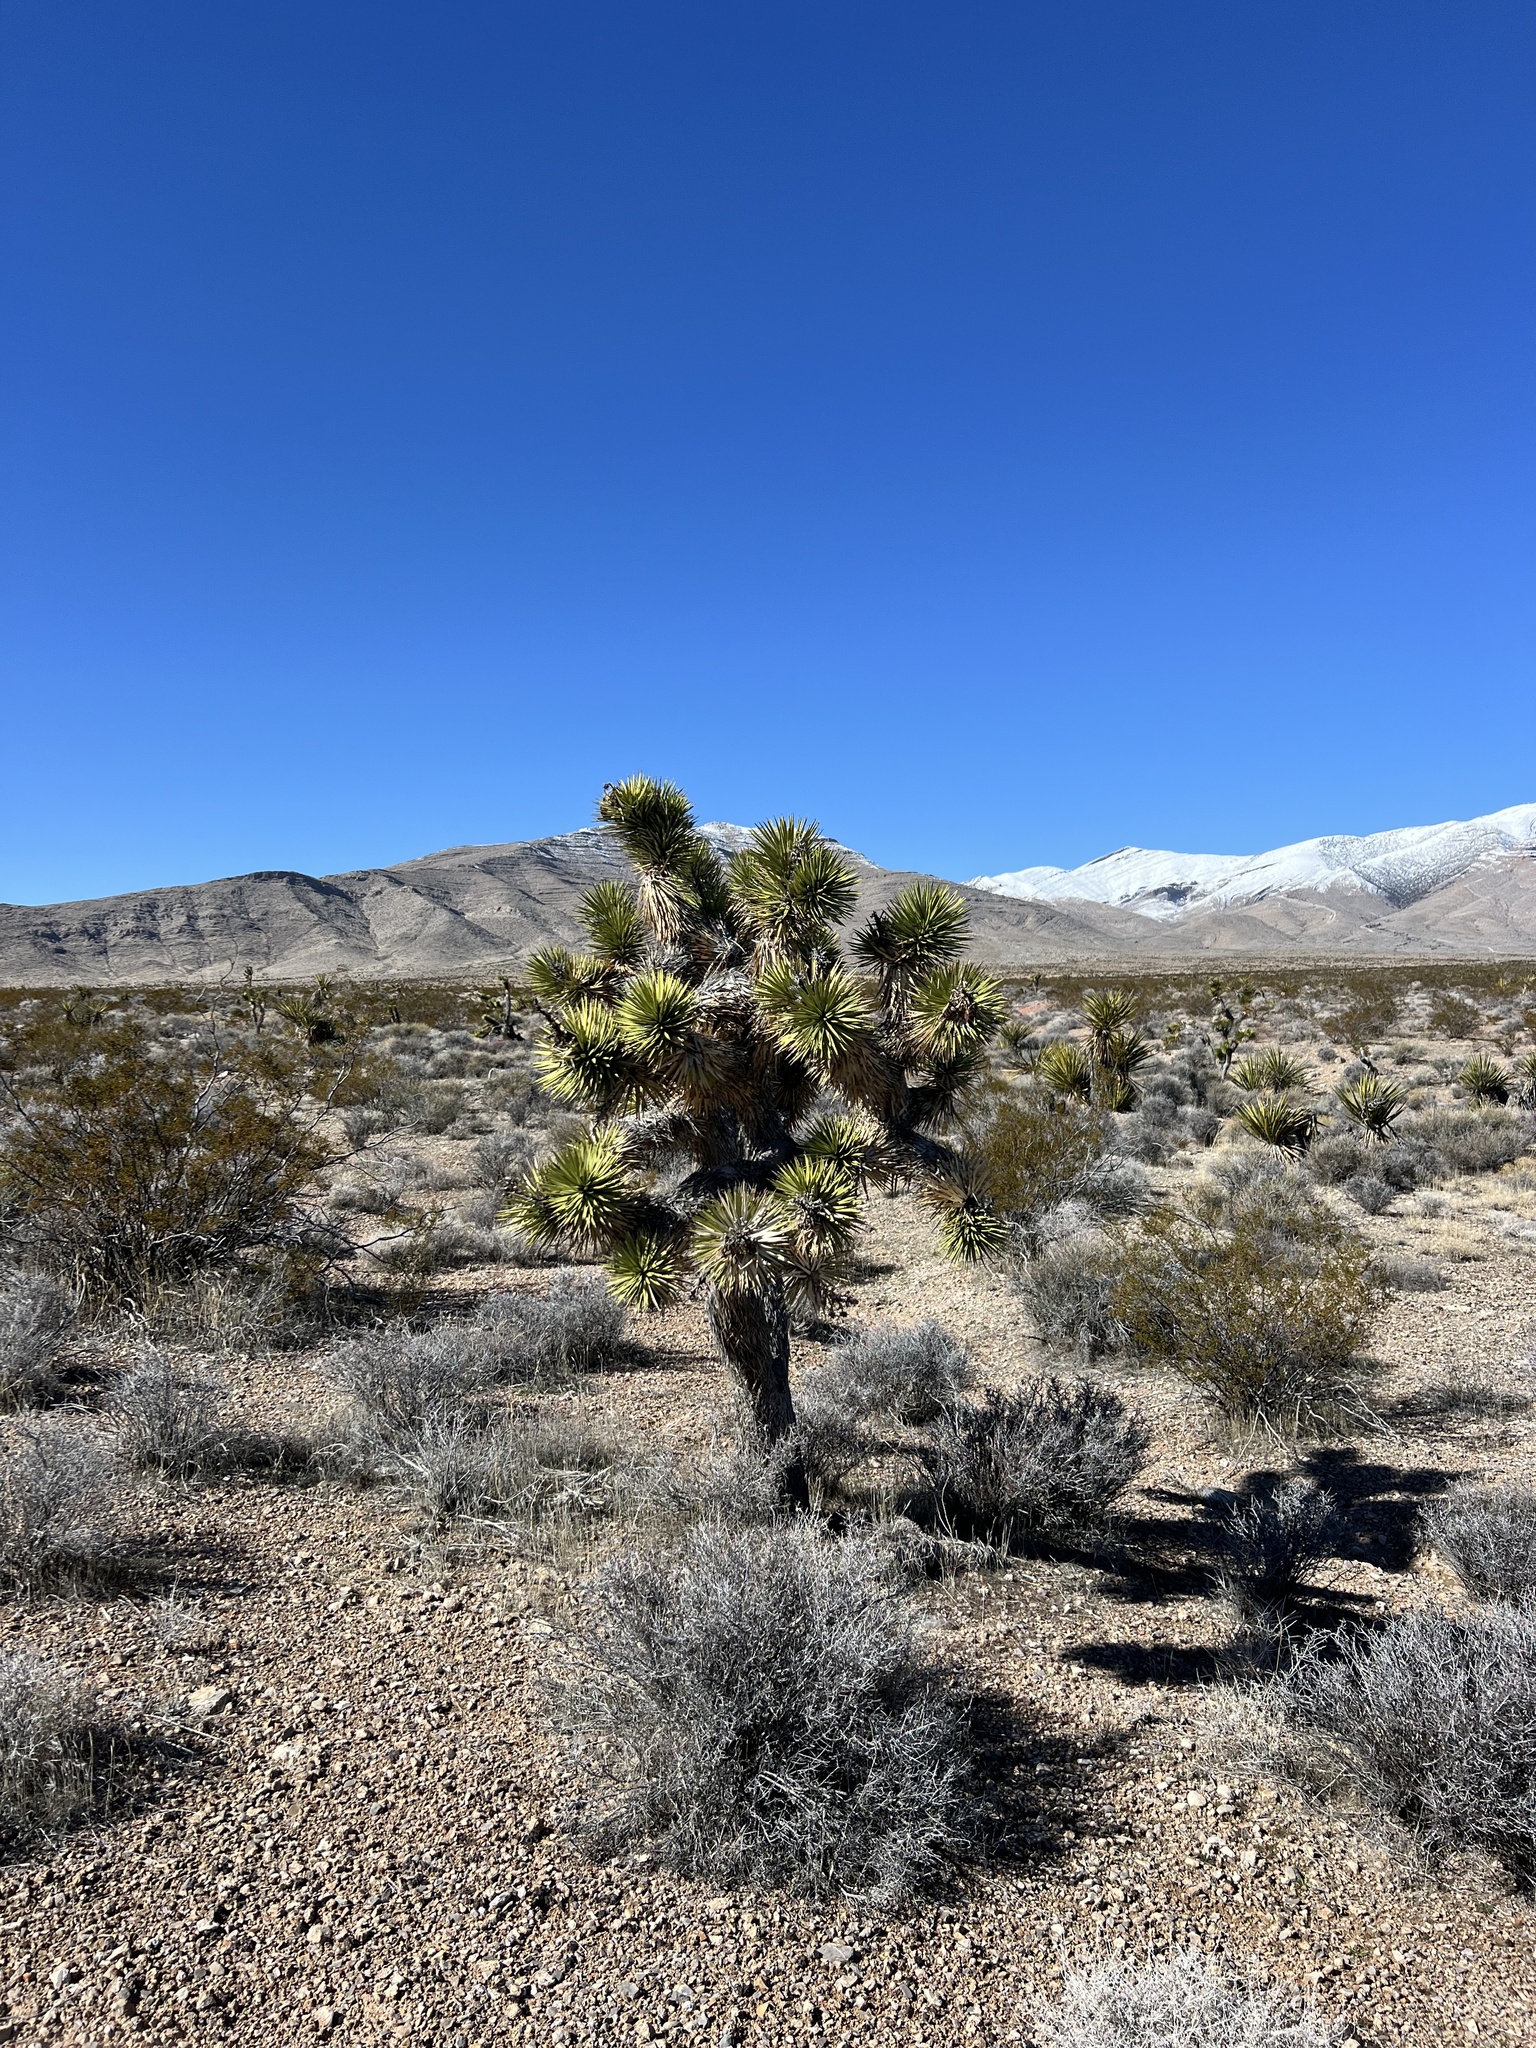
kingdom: Plantae
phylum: Tracheophyta
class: Liliopsida
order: Asparagales
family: Asparagaceae
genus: Yucca
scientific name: Yucca brevifolia
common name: Joshua tree
